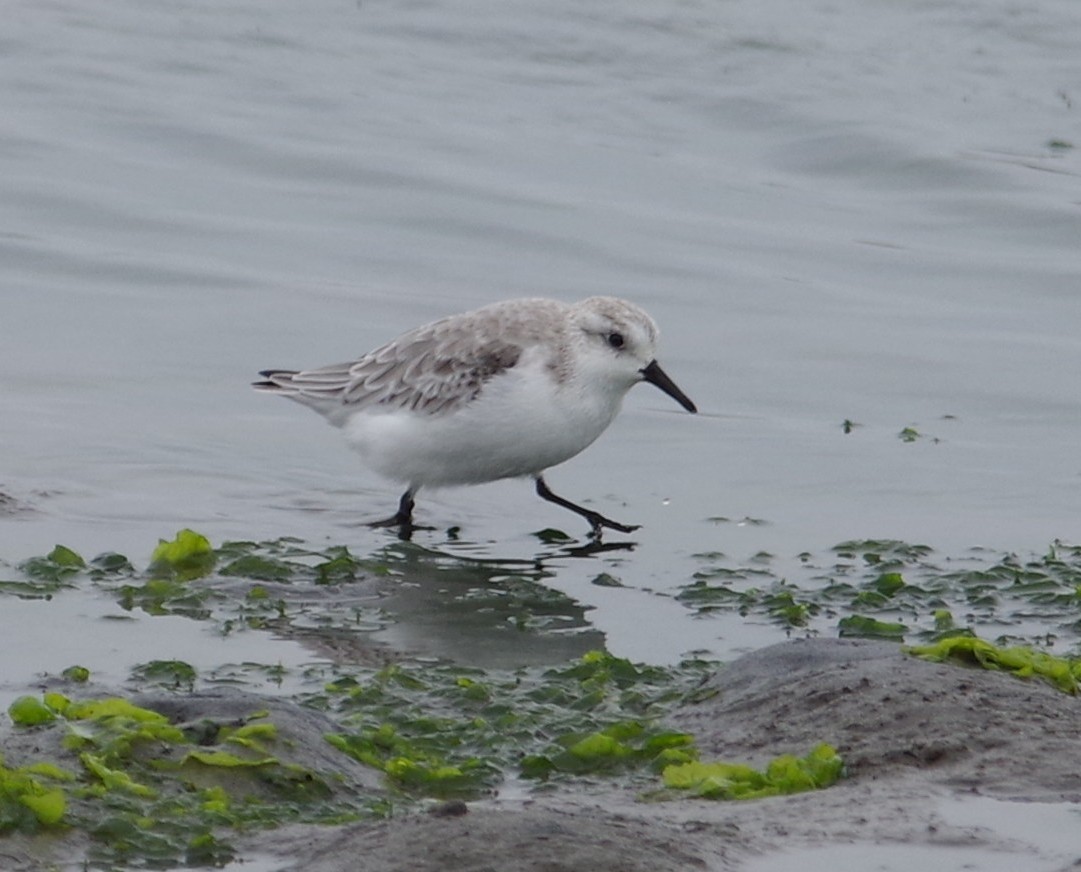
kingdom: Animalia
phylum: Chordata
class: Aves
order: Charadriiformes
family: Scolopacidae
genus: Calidris
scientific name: Calidris alba
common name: Sanderling
